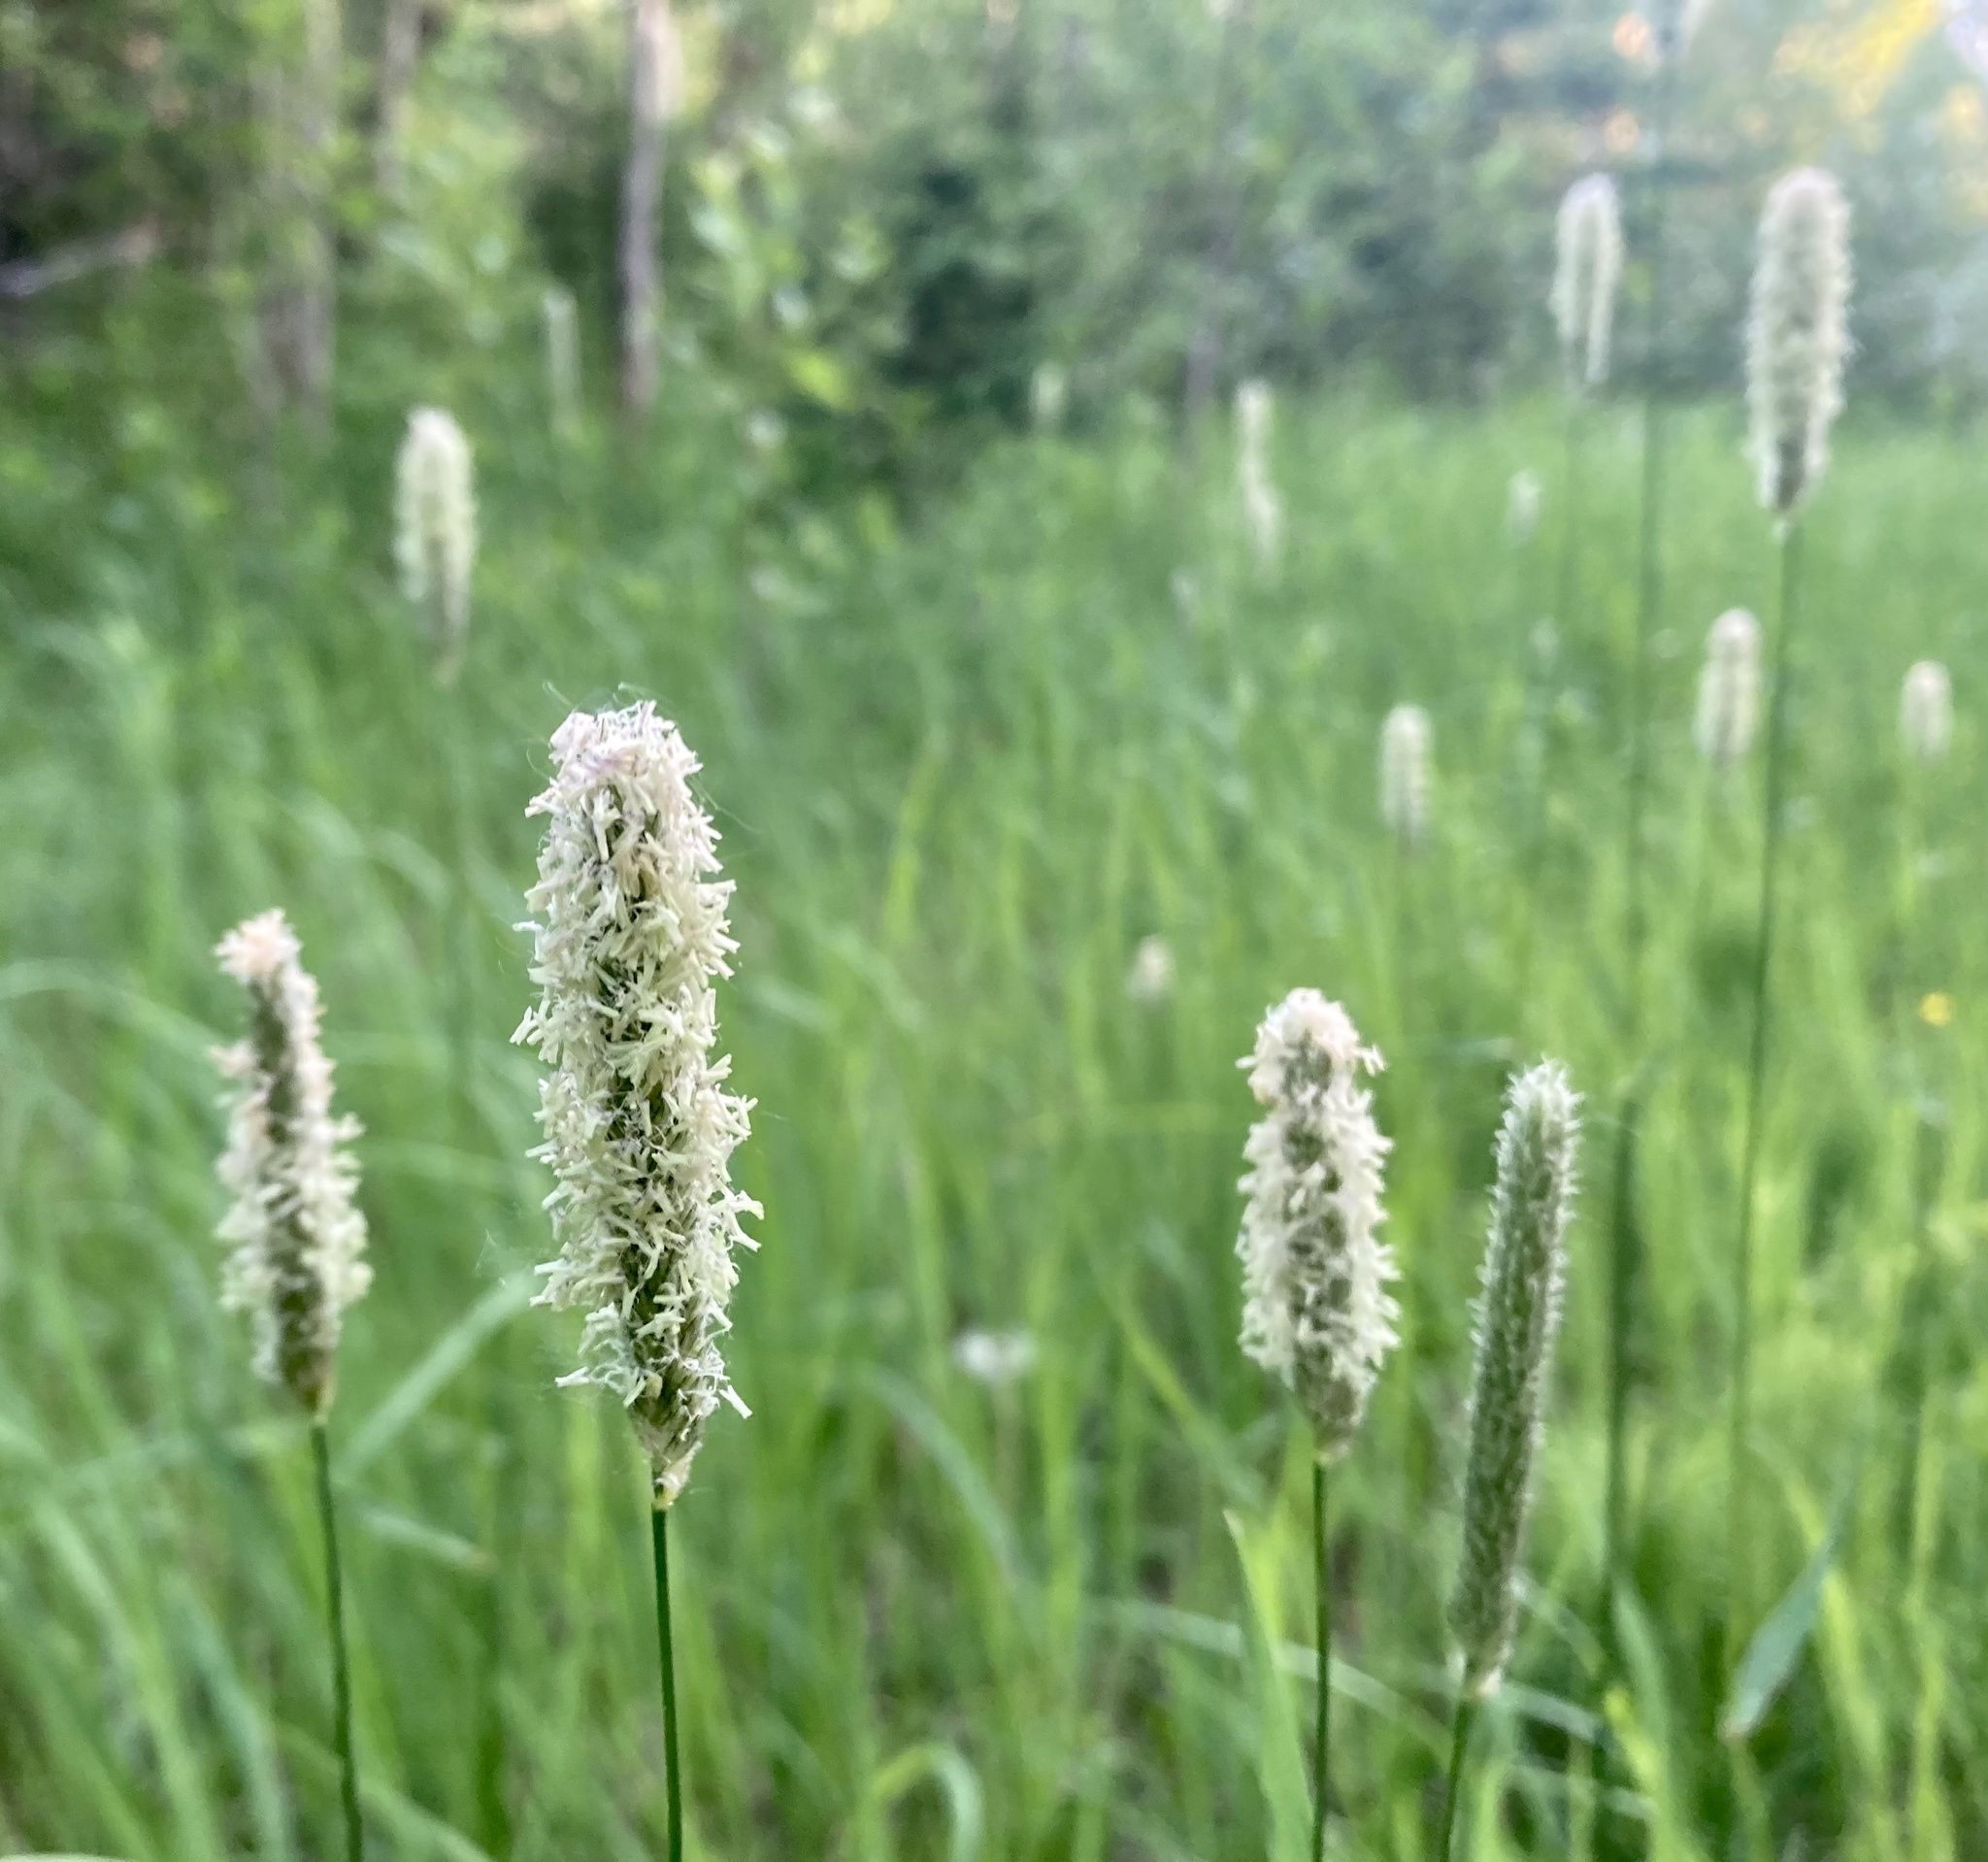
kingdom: Plantae
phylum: Tracheophyta
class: Liliopsida
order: Poales
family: Poaceae
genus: Phleum
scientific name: Phleum pratense
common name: Timothy grass
